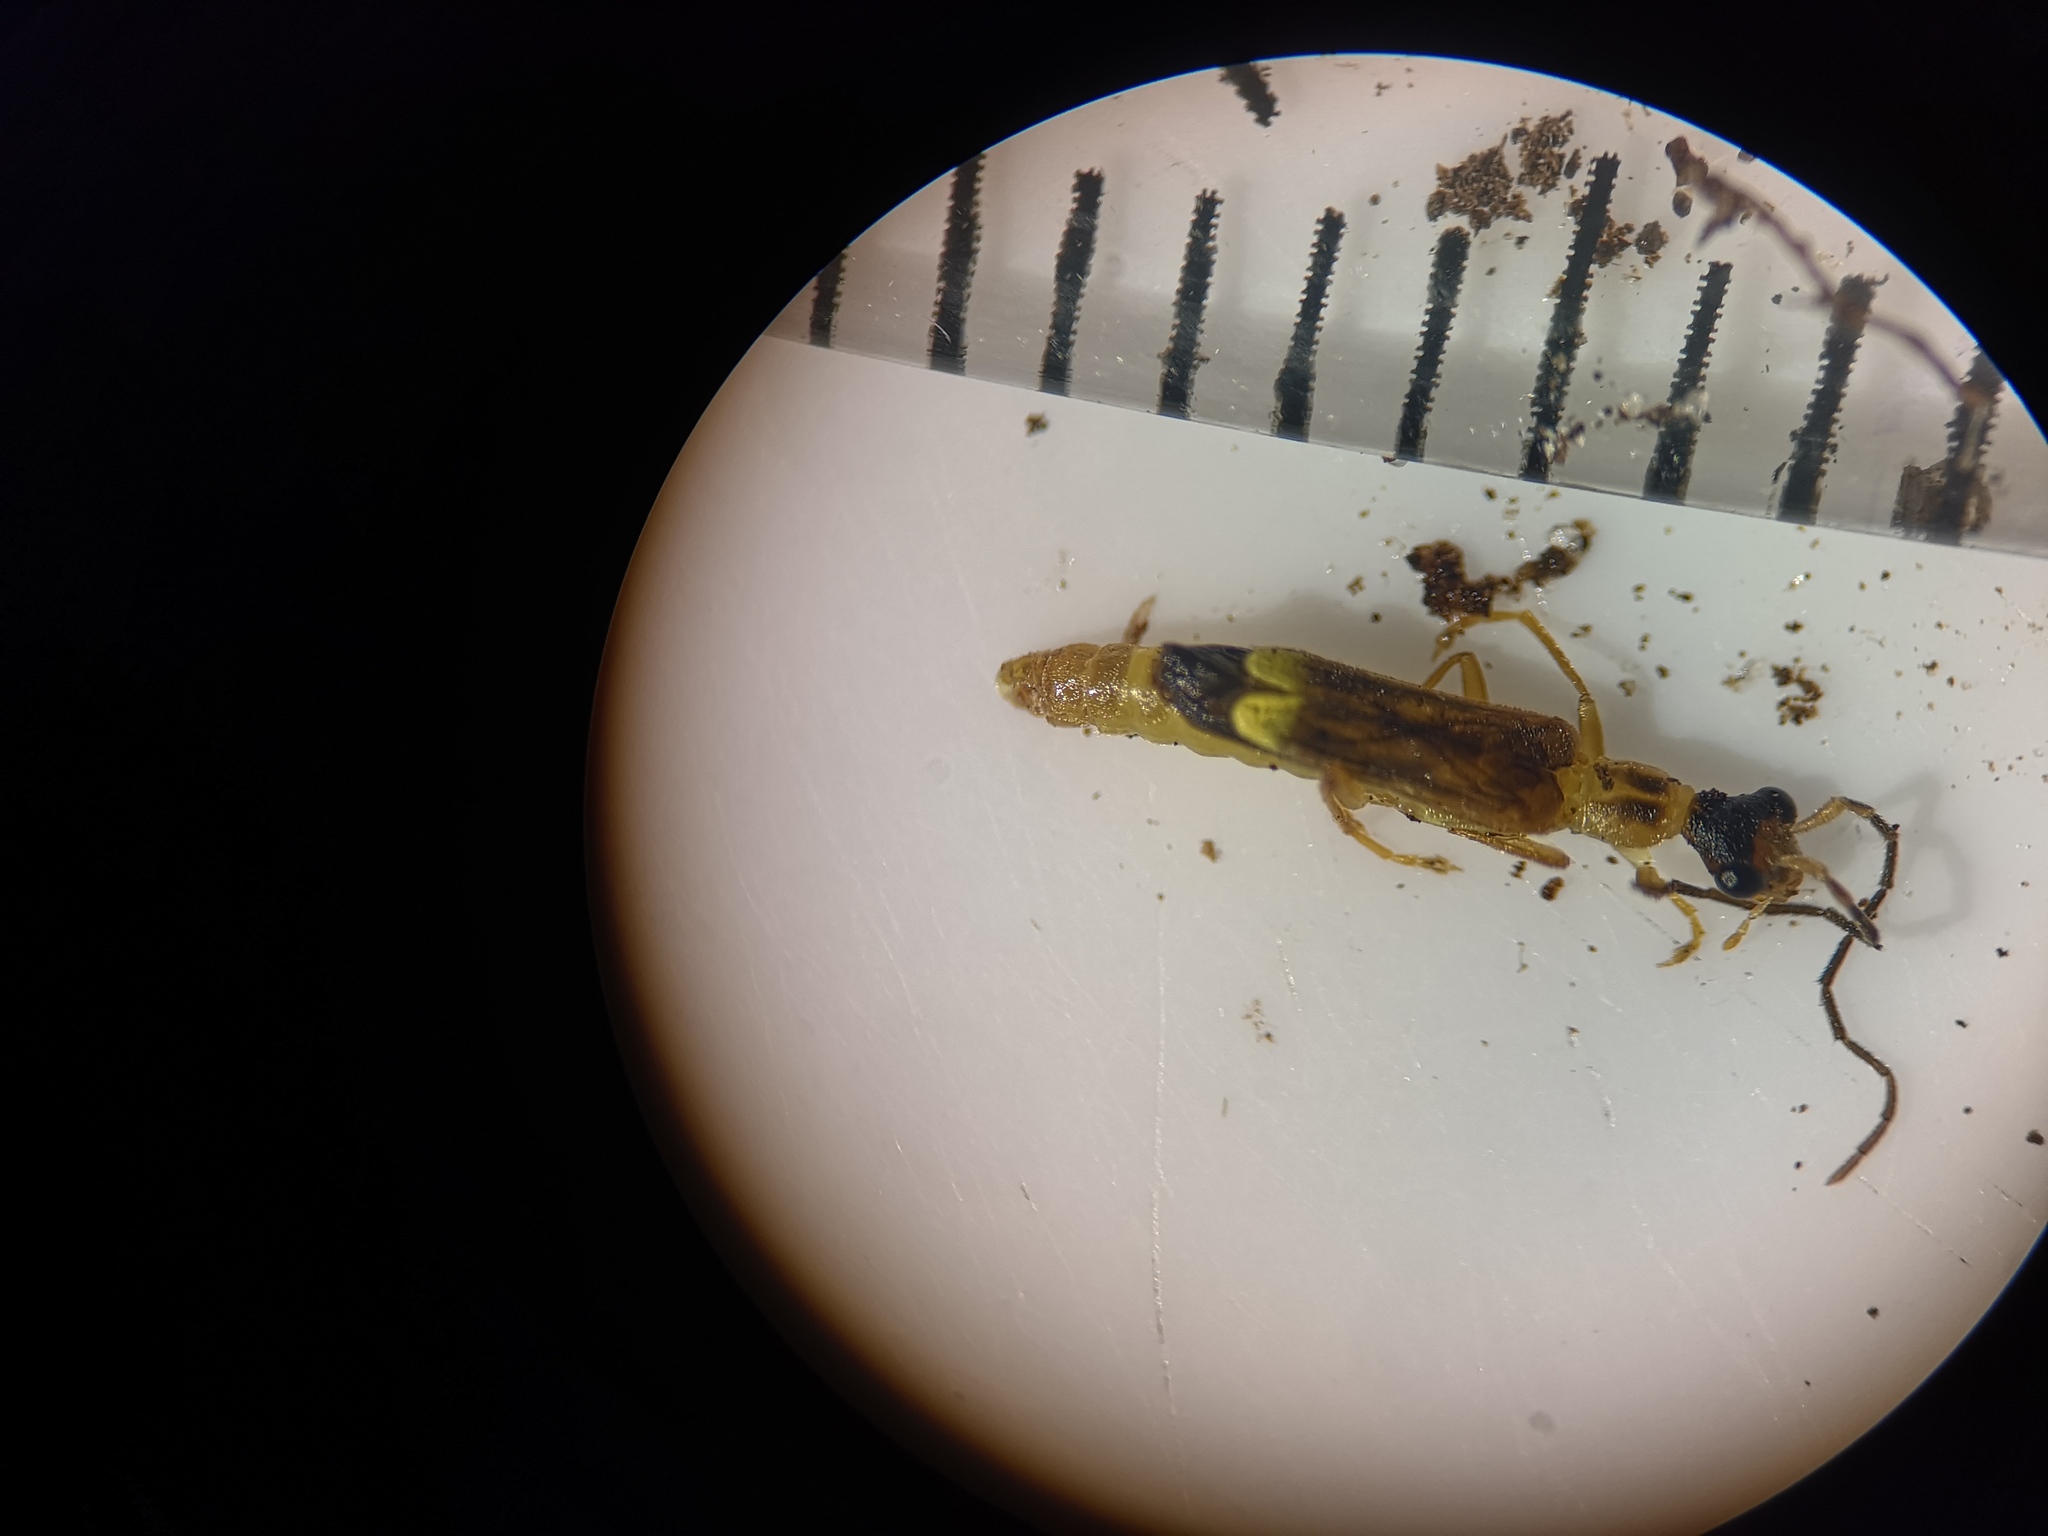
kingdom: Animalia
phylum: Arthropoda
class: Insecta
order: Coleoptera
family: Cantharidae
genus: Malthinus
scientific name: Malthinus flaveolus
